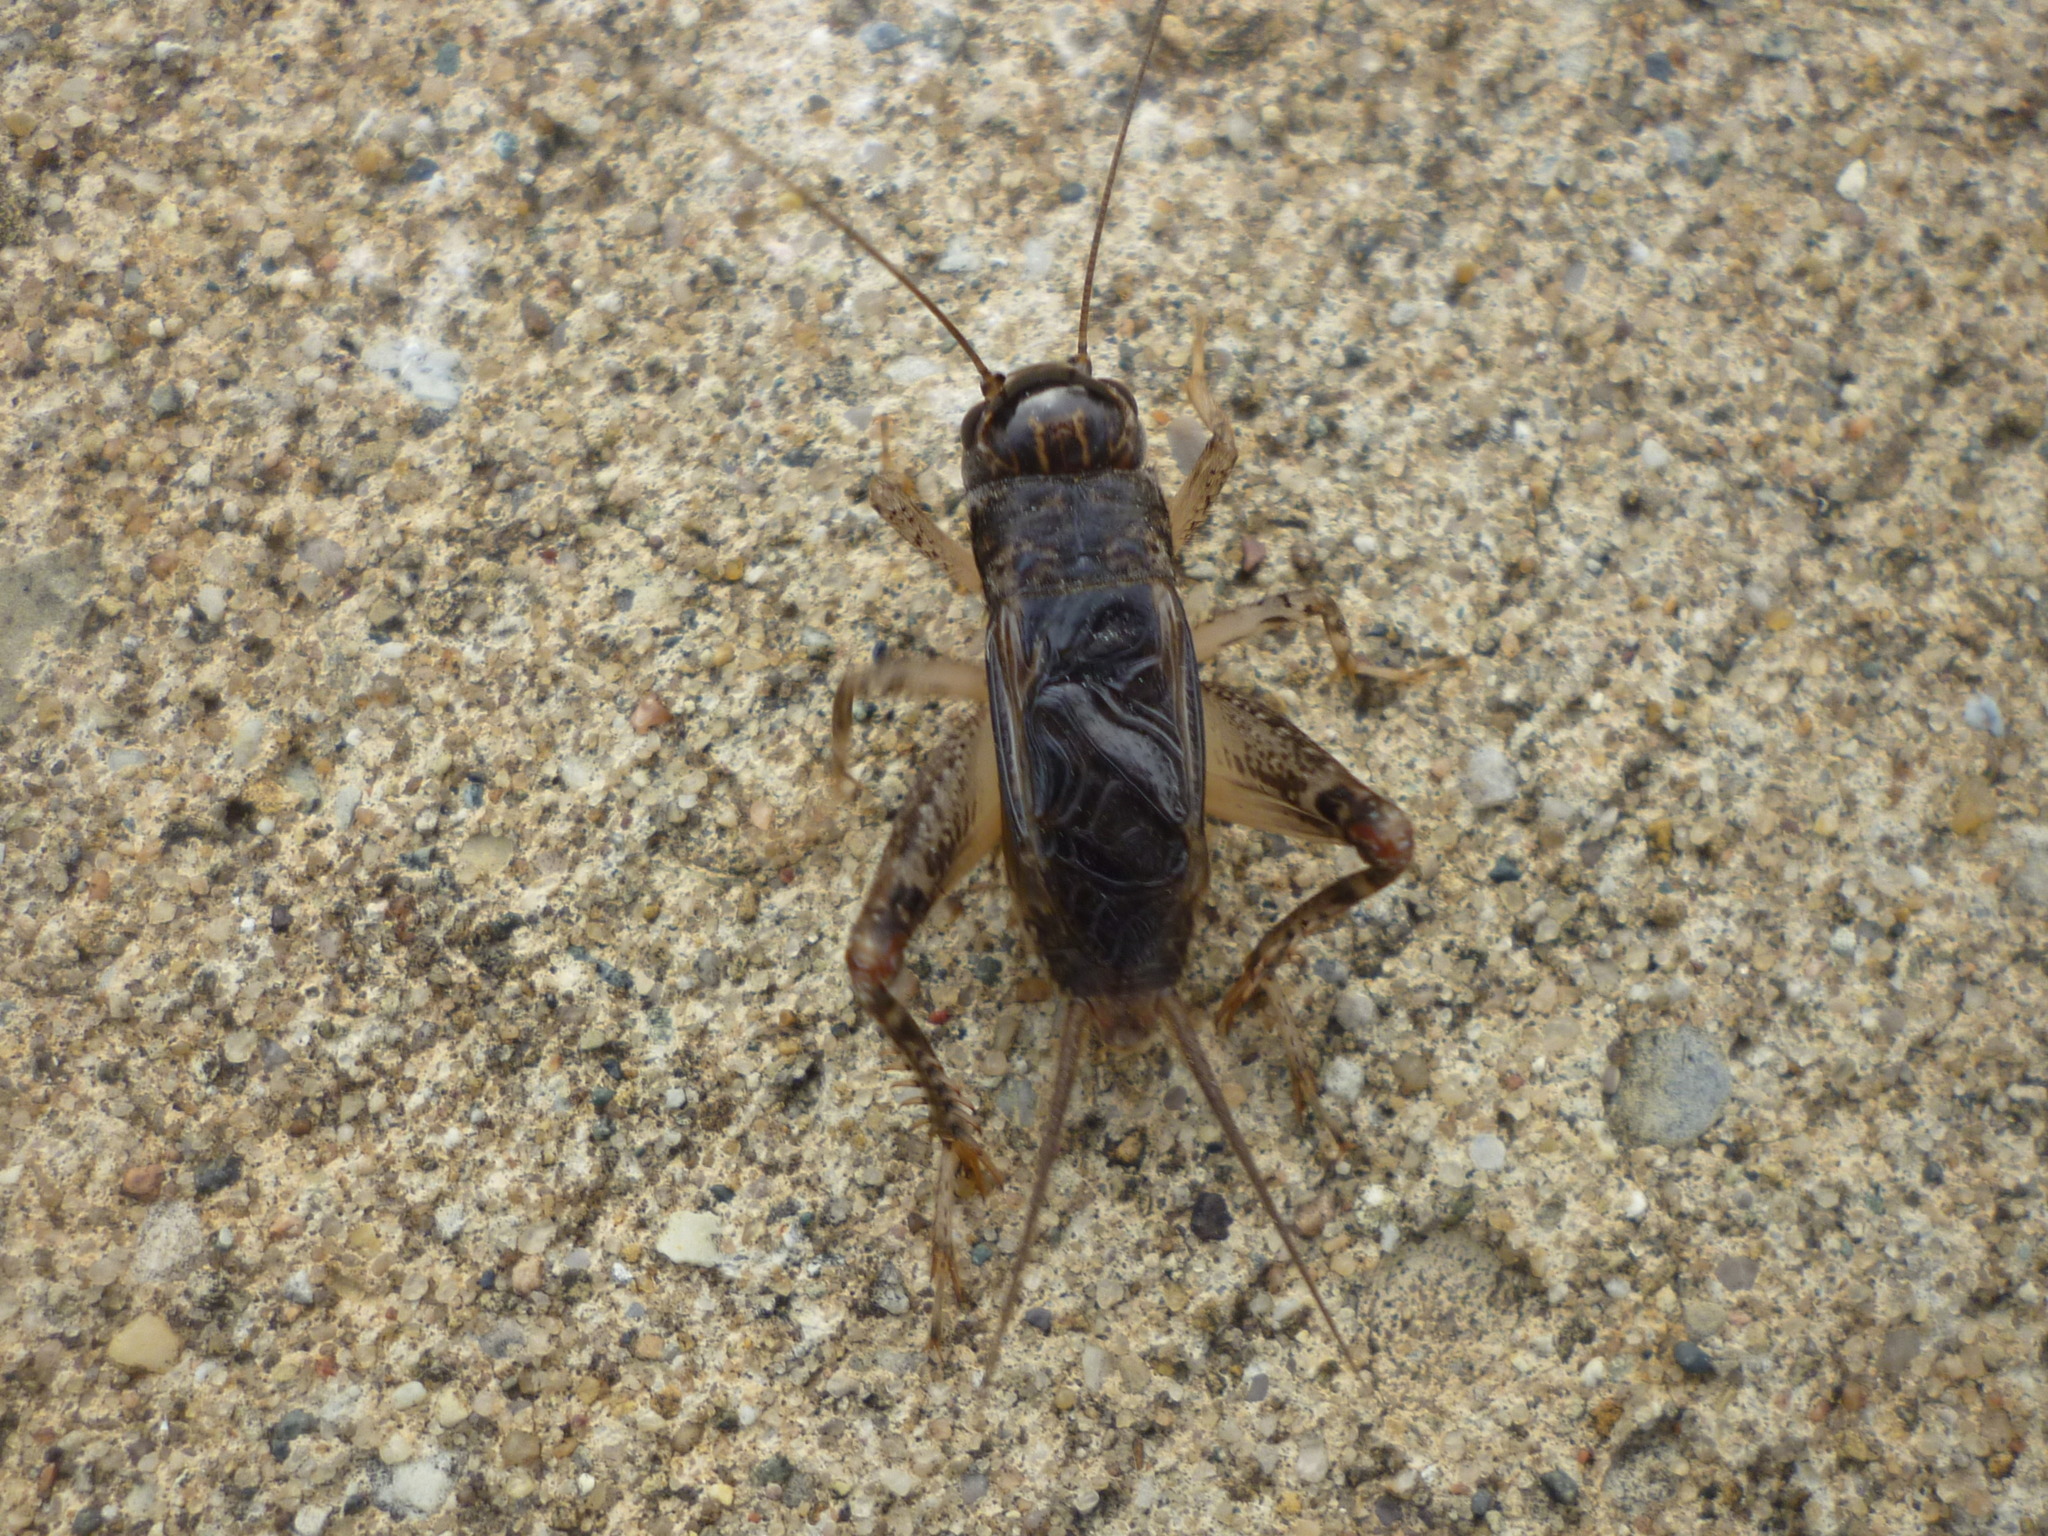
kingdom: Animalia
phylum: Arthropoda
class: Insecta
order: Orthoptera
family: Gryllidae
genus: Velarifictorus
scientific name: Velarifictorus micado
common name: Japanese burrowing cricket
